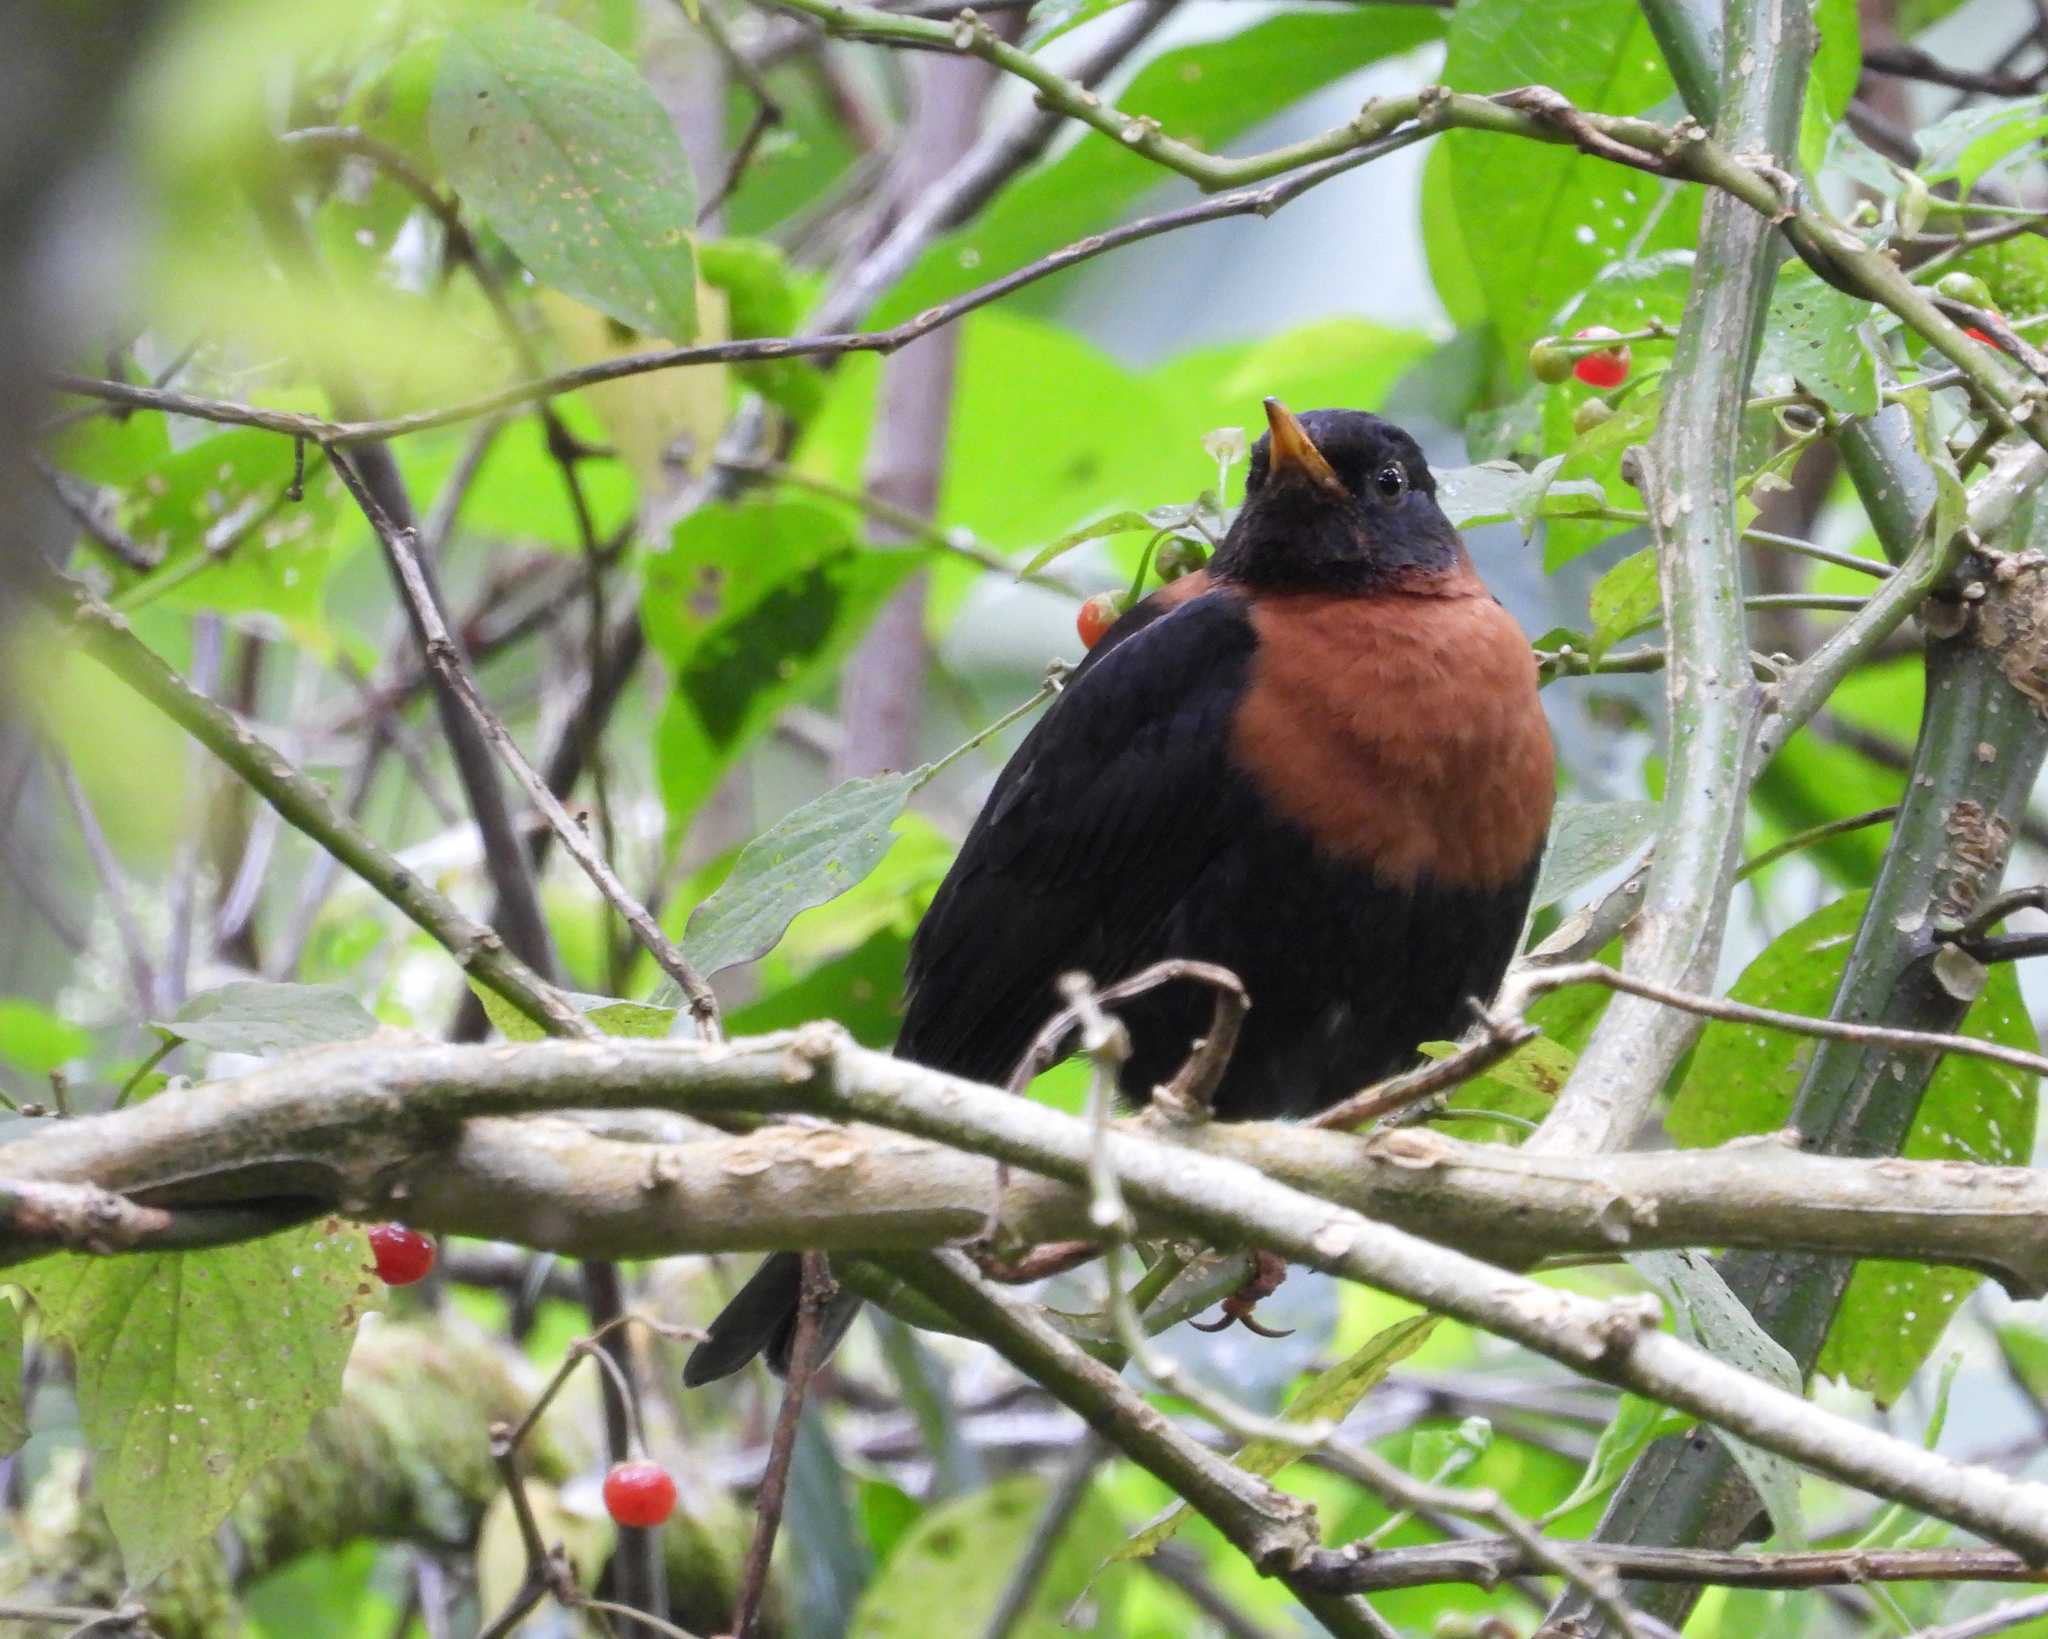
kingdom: Animalia
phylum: Chordata
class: Aves
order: Passeriformes
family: Turdidae
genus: Turdus
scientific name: Turdus rufitorques
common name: Rufous-collared thrush
